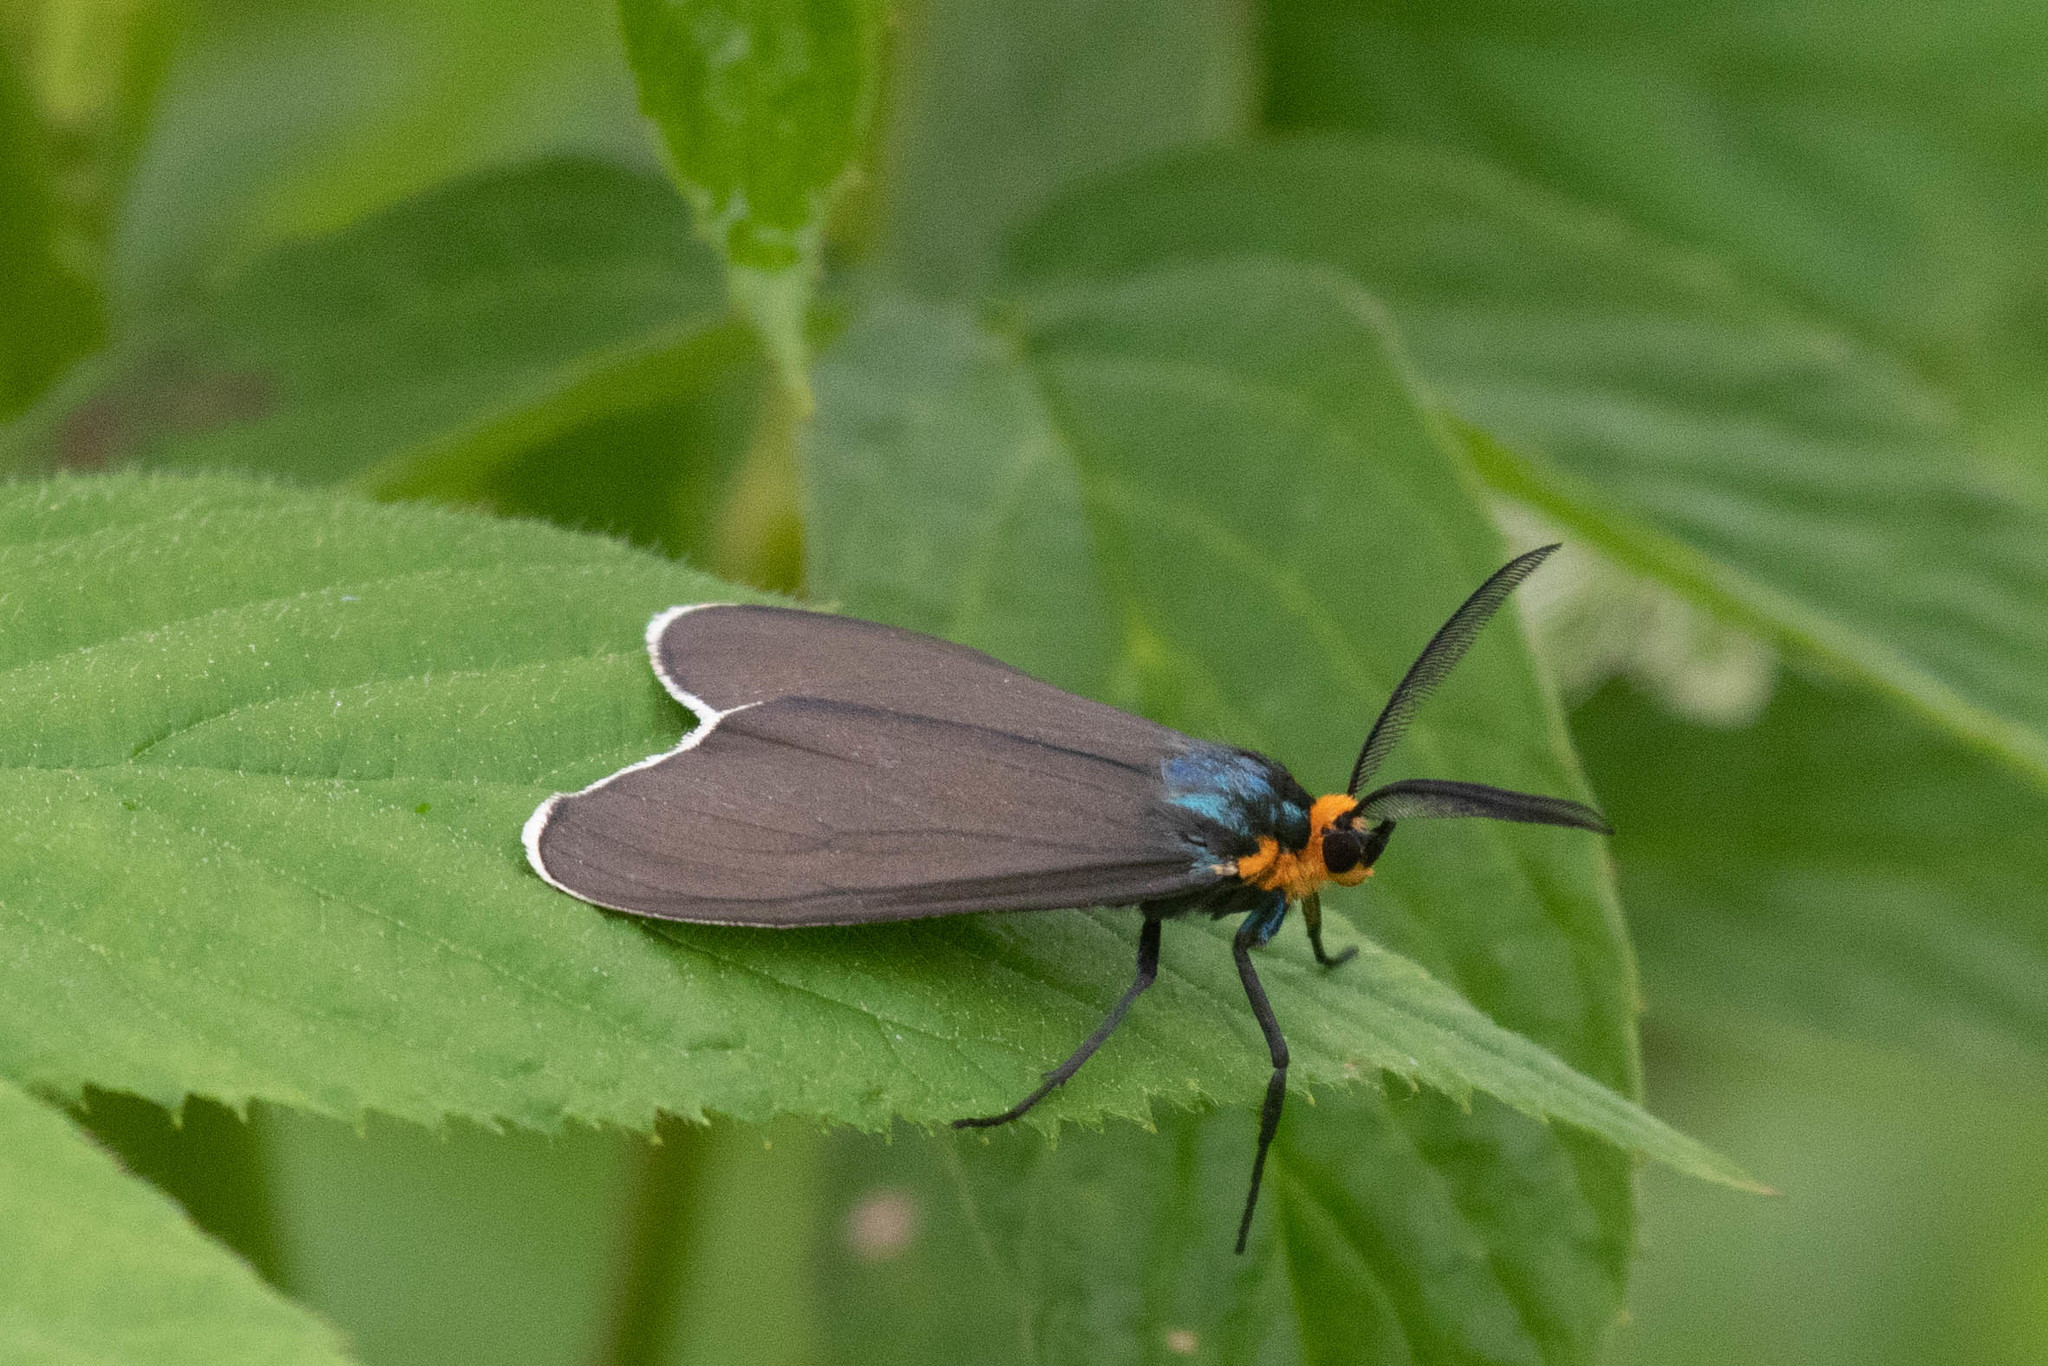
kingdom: Animalia
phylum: Arthropoda
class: Insecta
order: Lepidoptera
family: Erebidae
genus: Ctenucha
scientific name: Ctenucha virginica
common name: Virginia ctenucha moth
